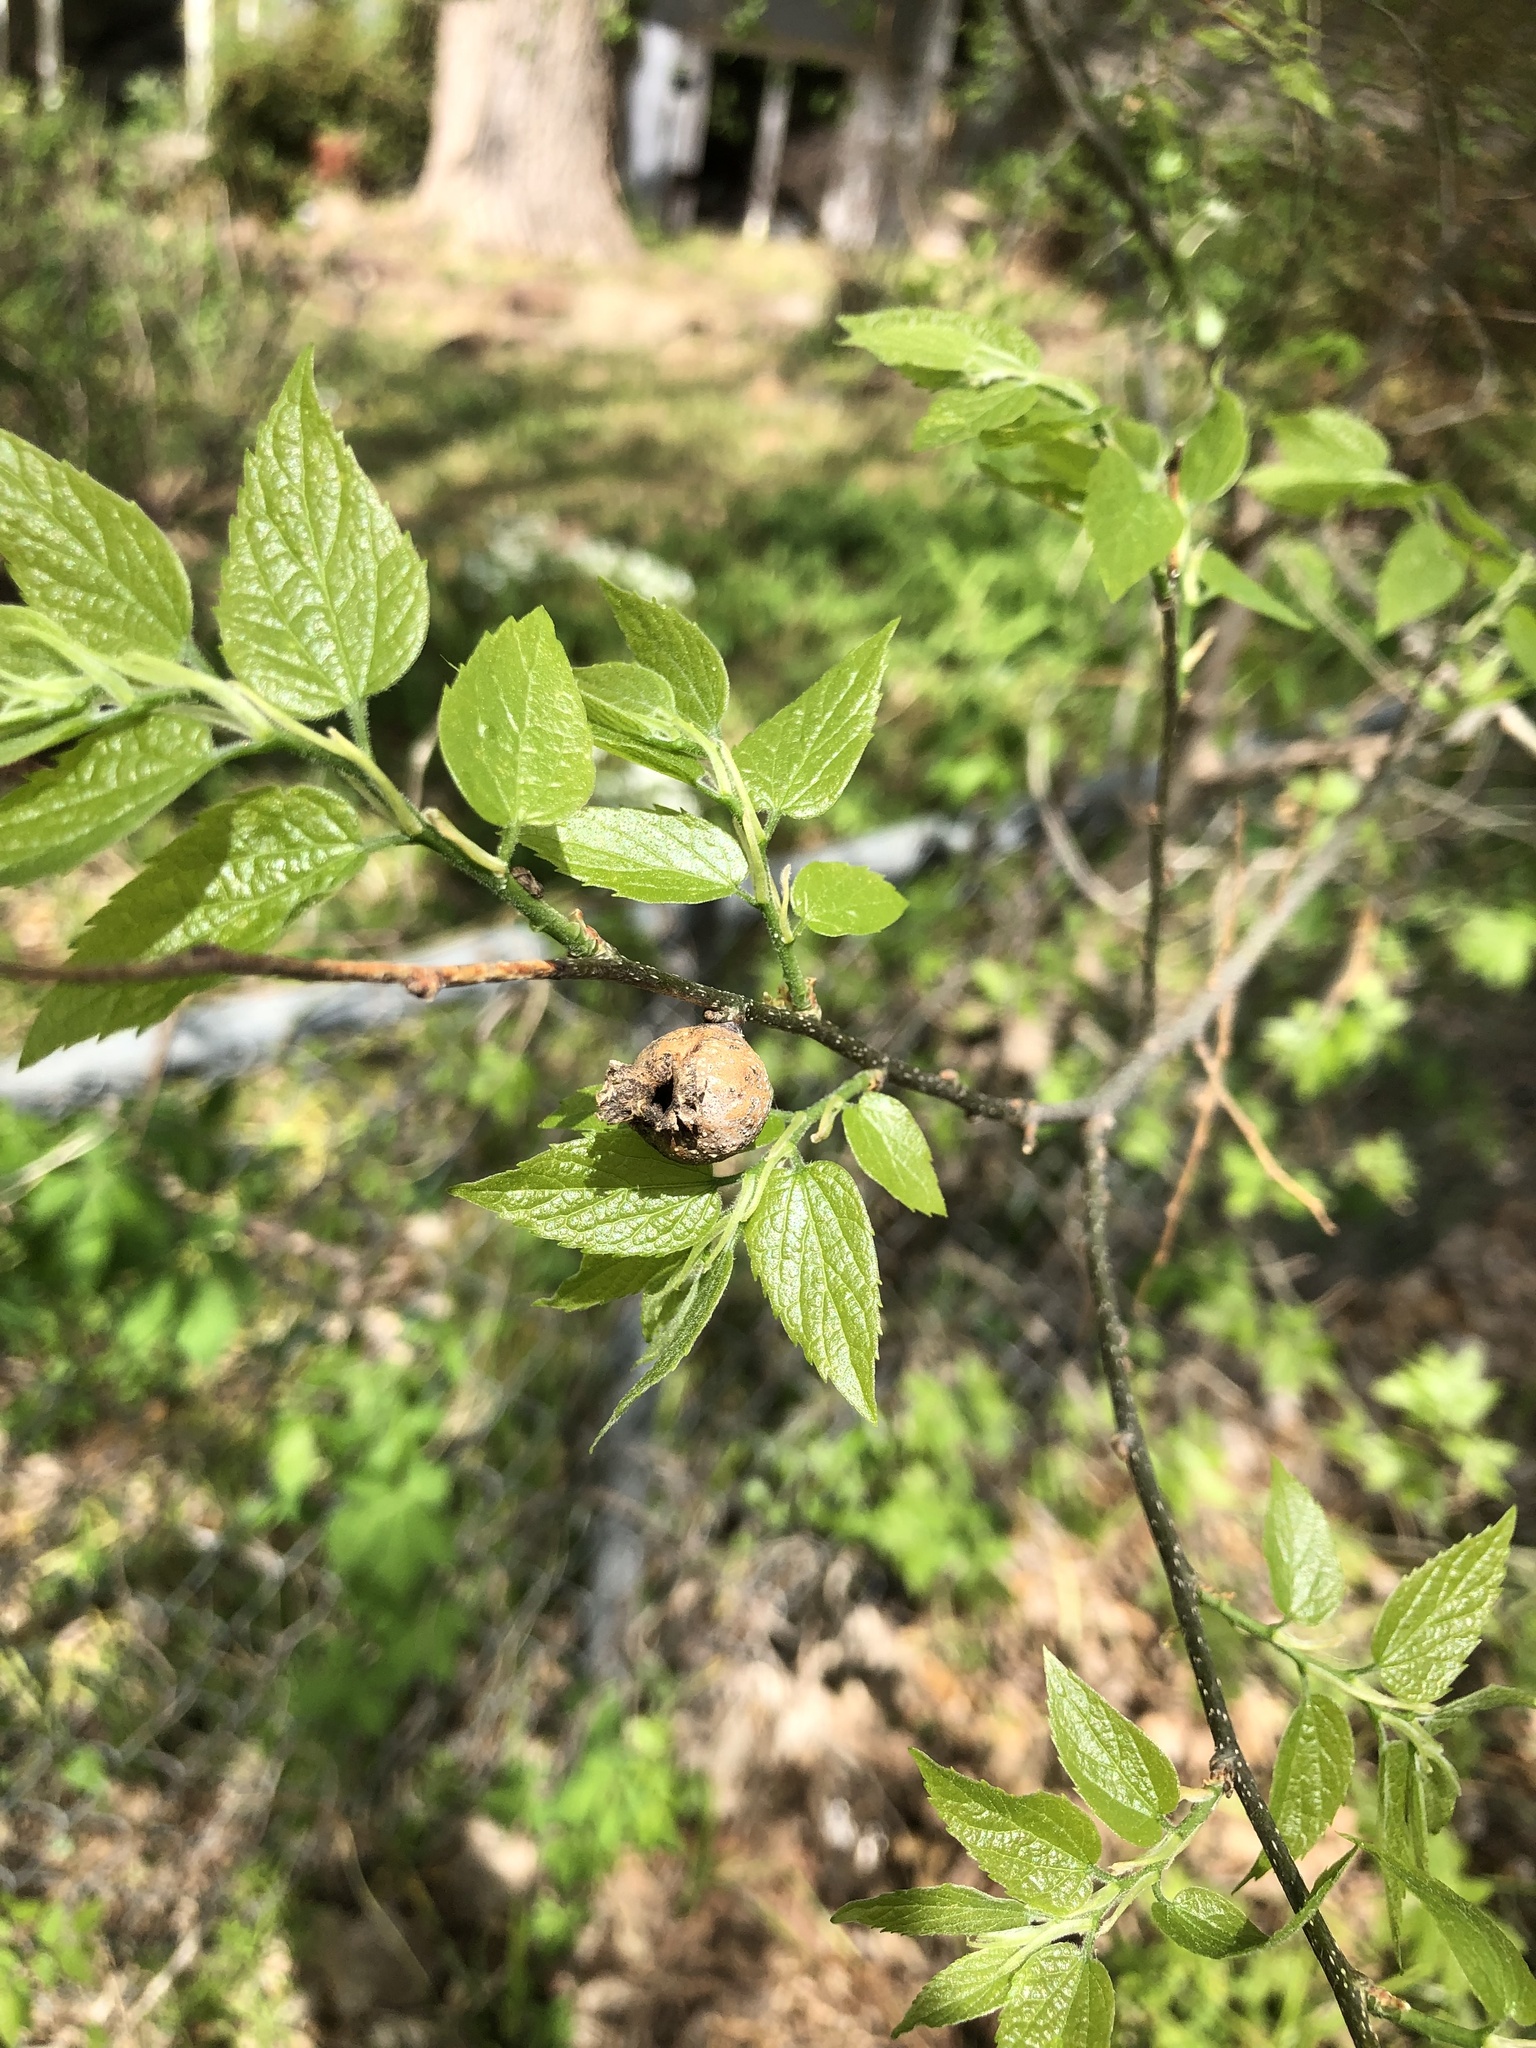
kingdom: Animalia
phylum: Arthropoda
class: Insecta
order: Hemiptera
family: Aphalaridae
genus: Pachypsylla
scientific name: Pachypsylla venusta
